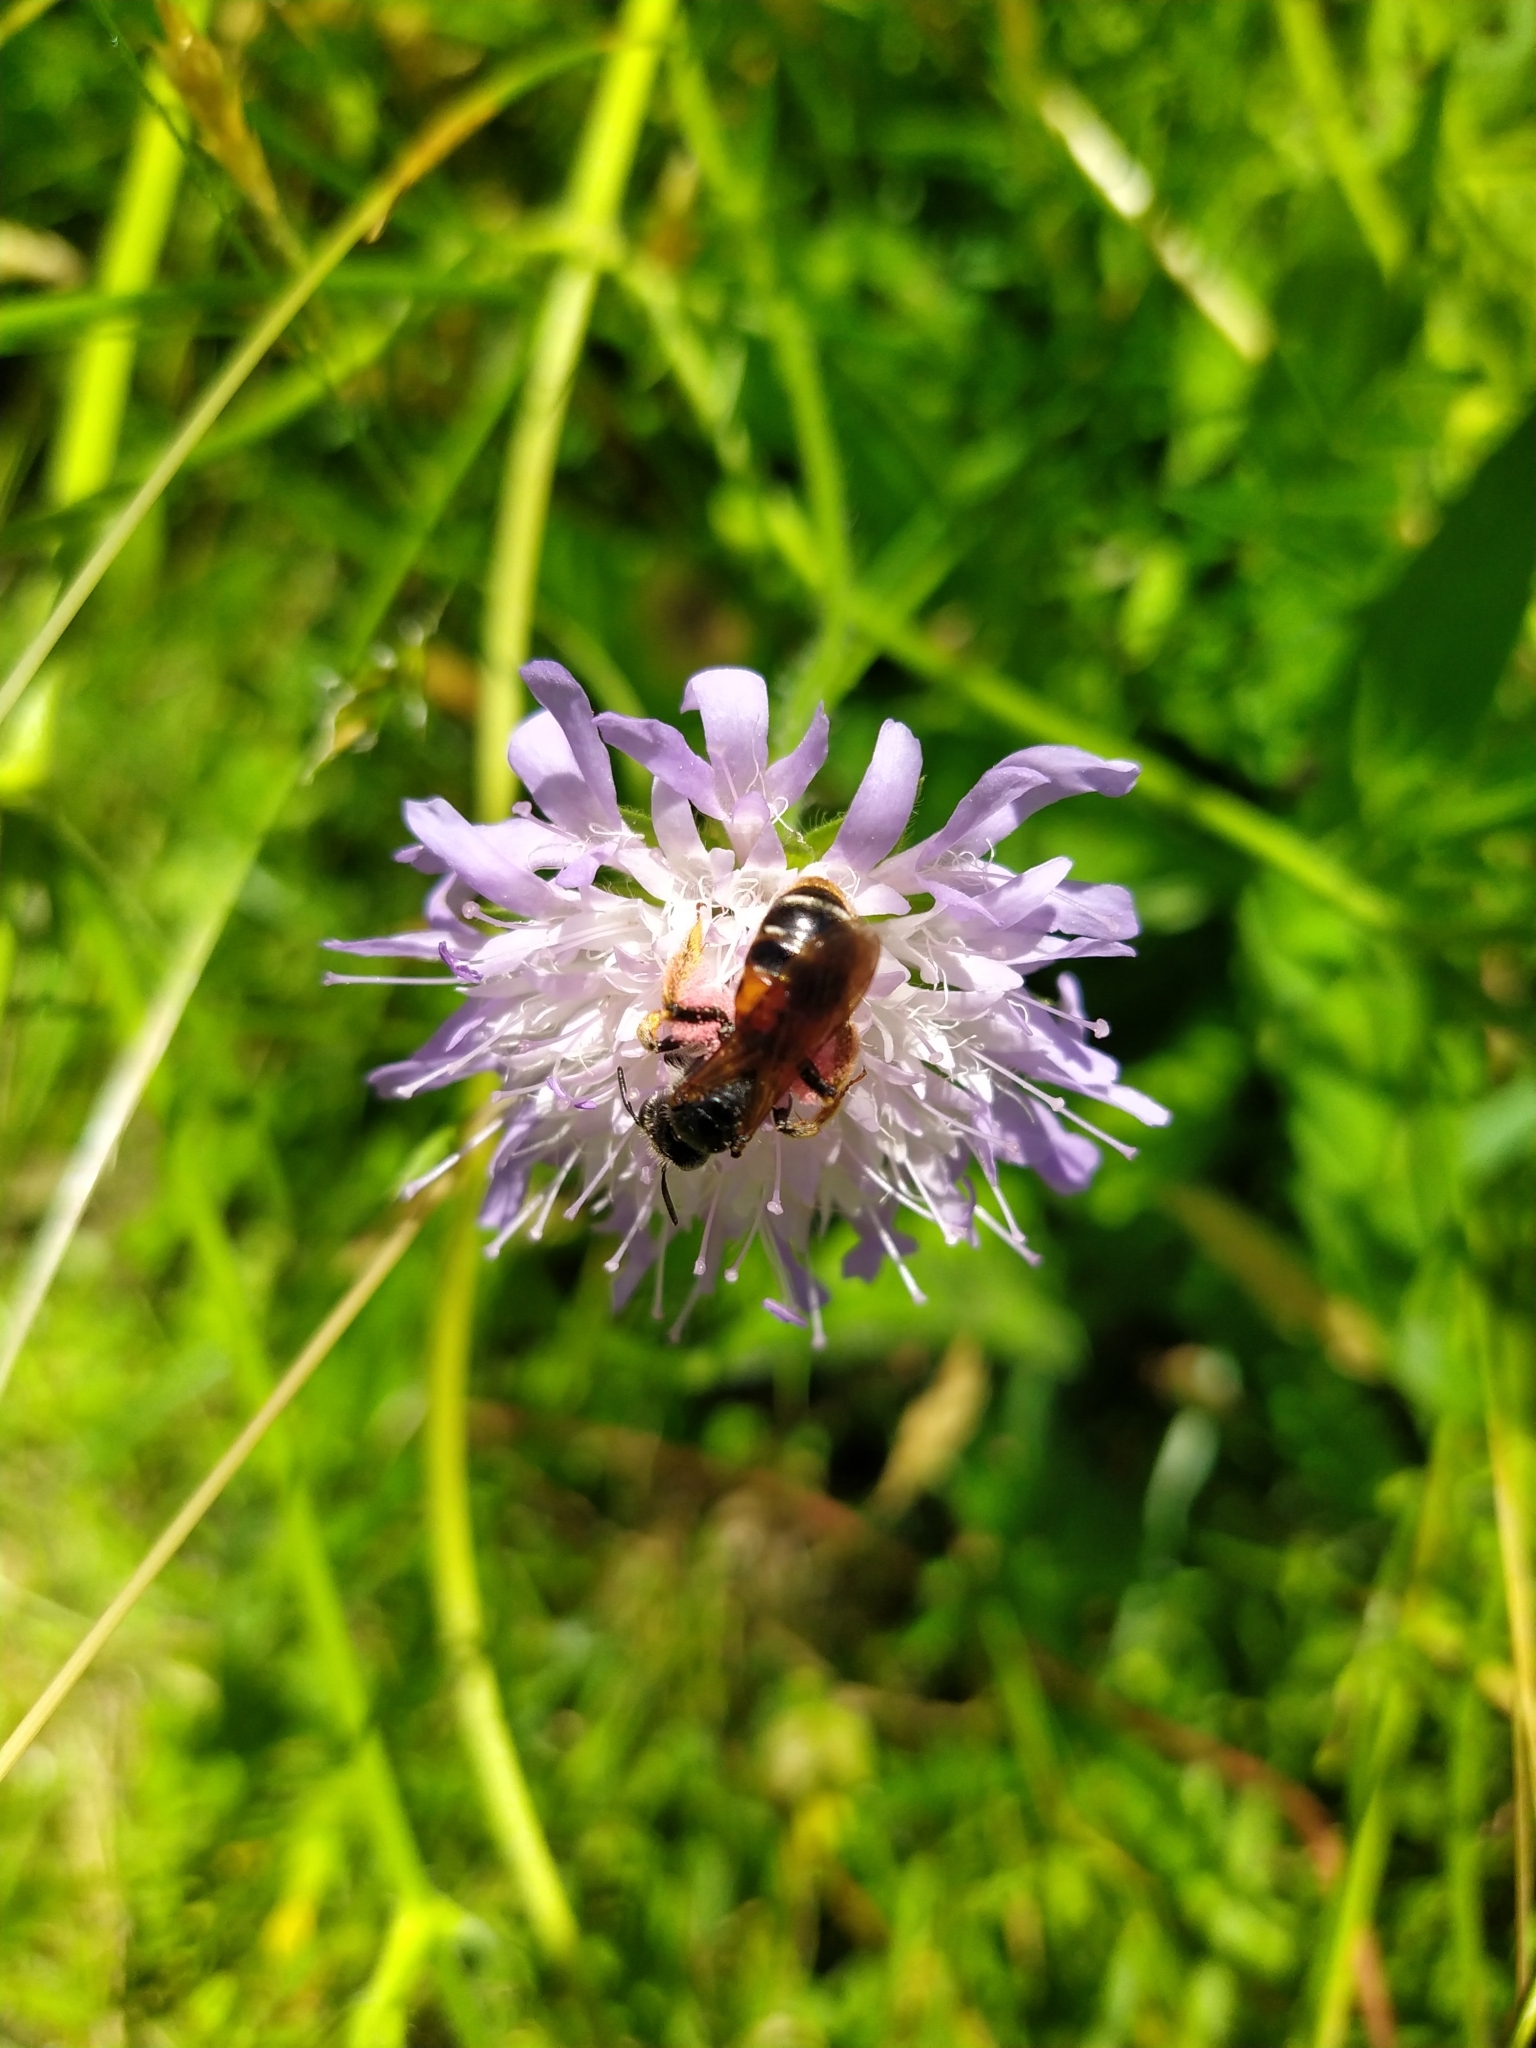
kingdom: Animalia
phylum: Arthropoda
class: Insecta
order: Hymenoptera
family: Andrenidae
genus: Andrena
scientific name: Andrena hattorfiana
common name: Large scabious mining bee
